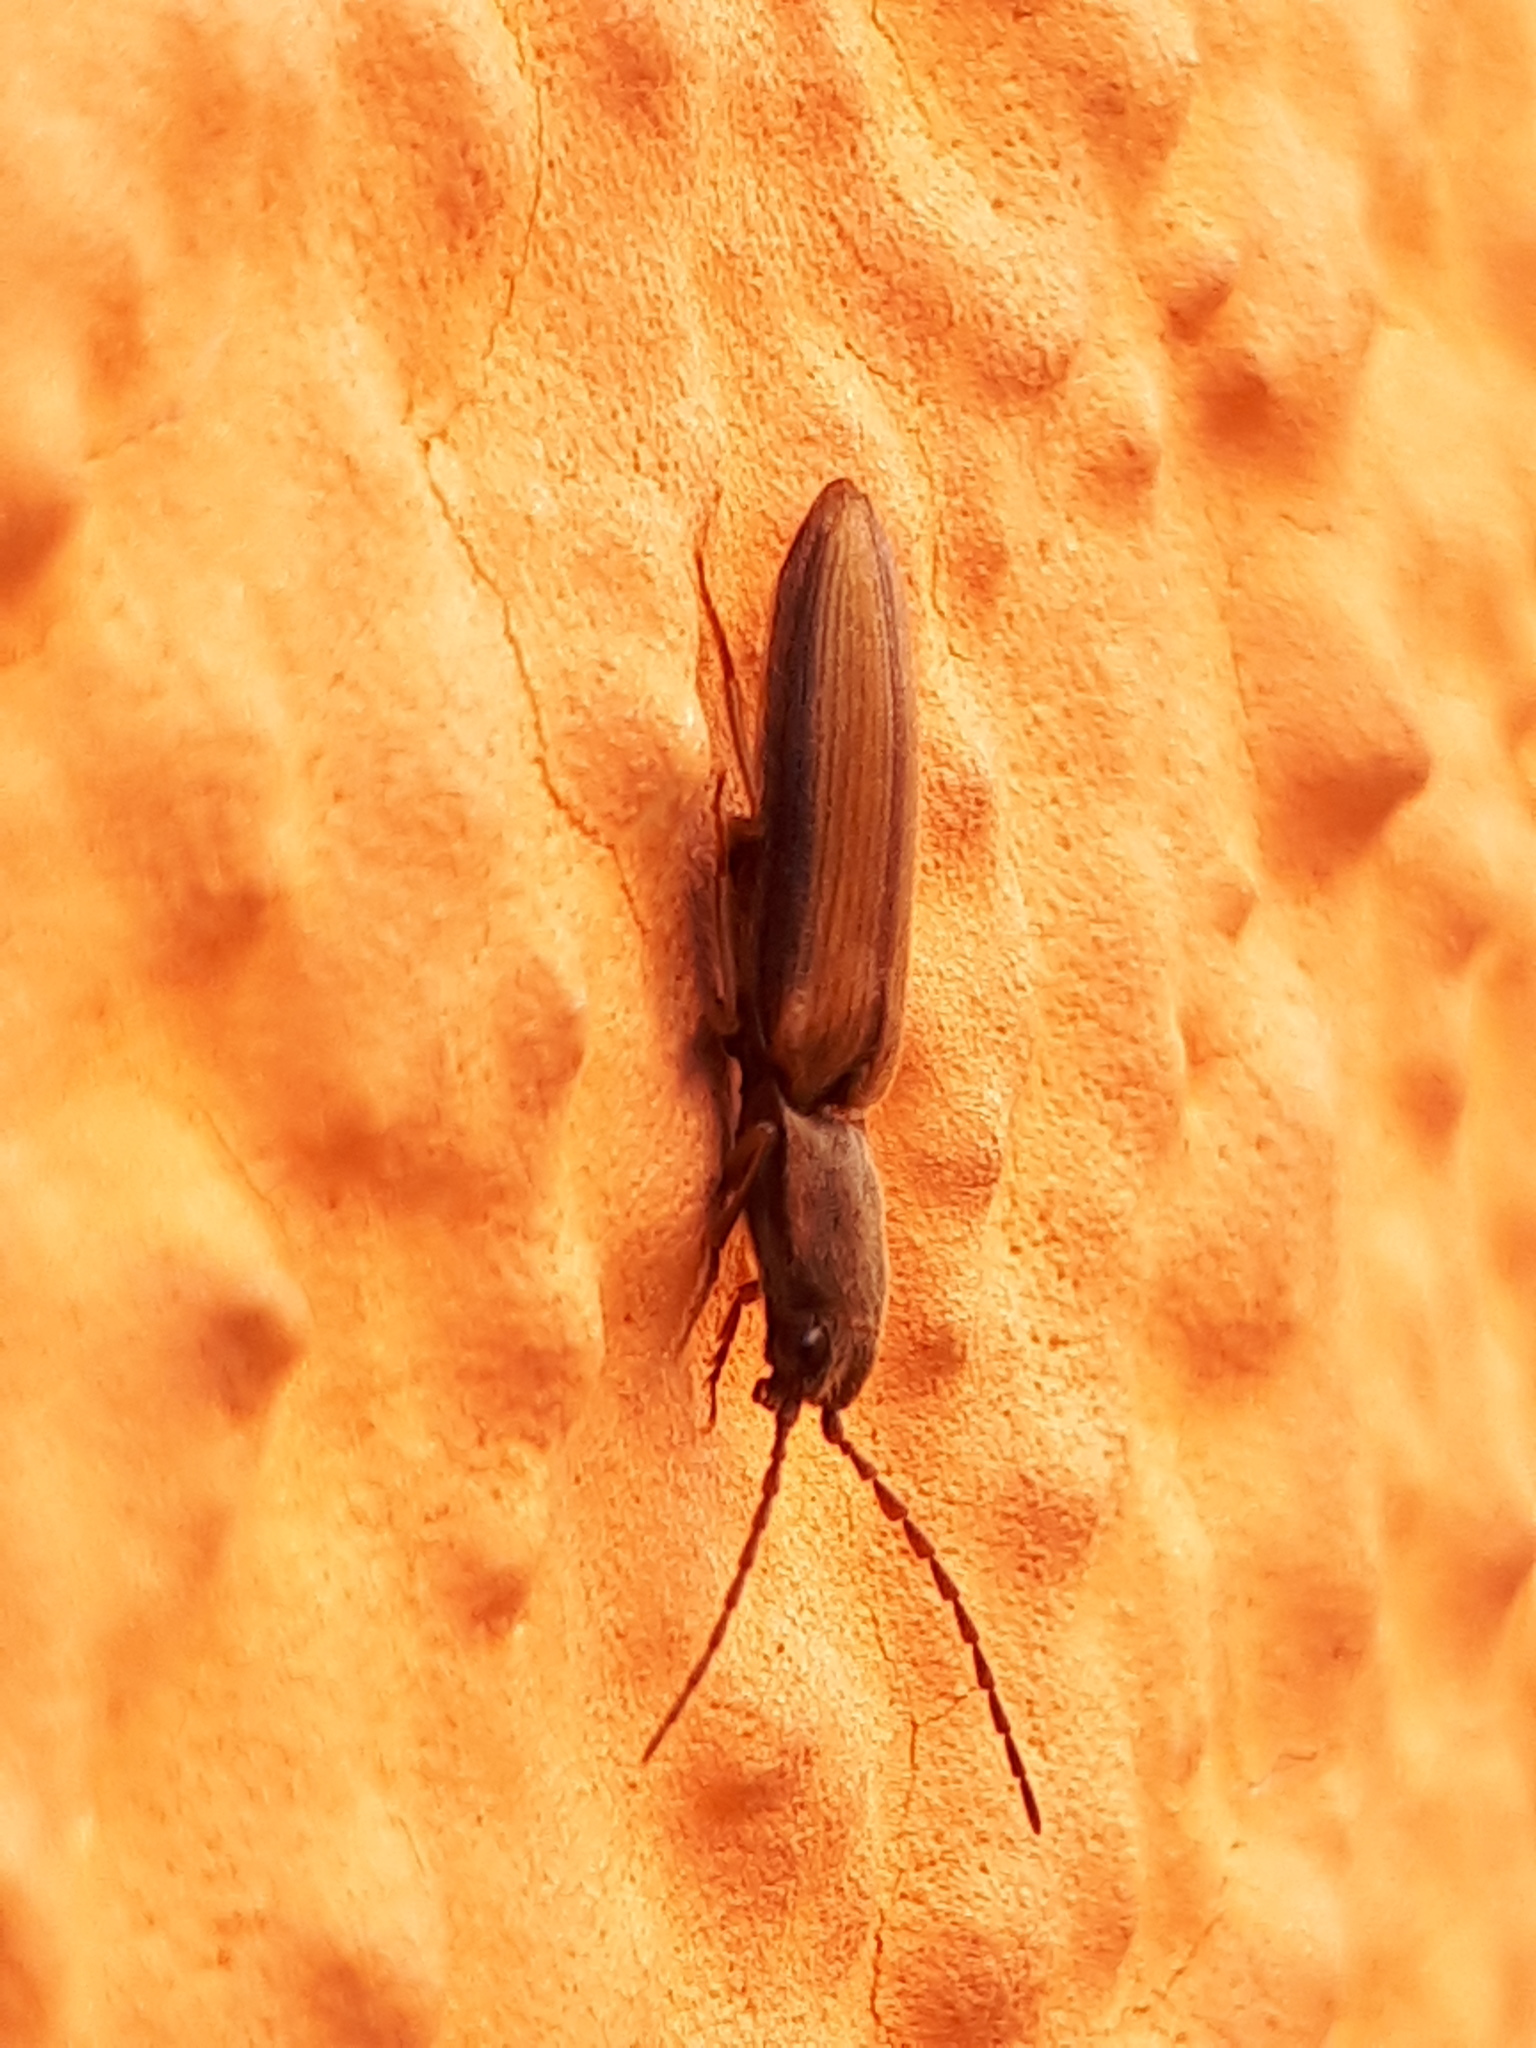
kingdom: Animalia
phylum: Arthropoda
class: Insecta
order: Coleoptera
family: Elateridae
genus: Athous
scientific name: Athous bicolor
